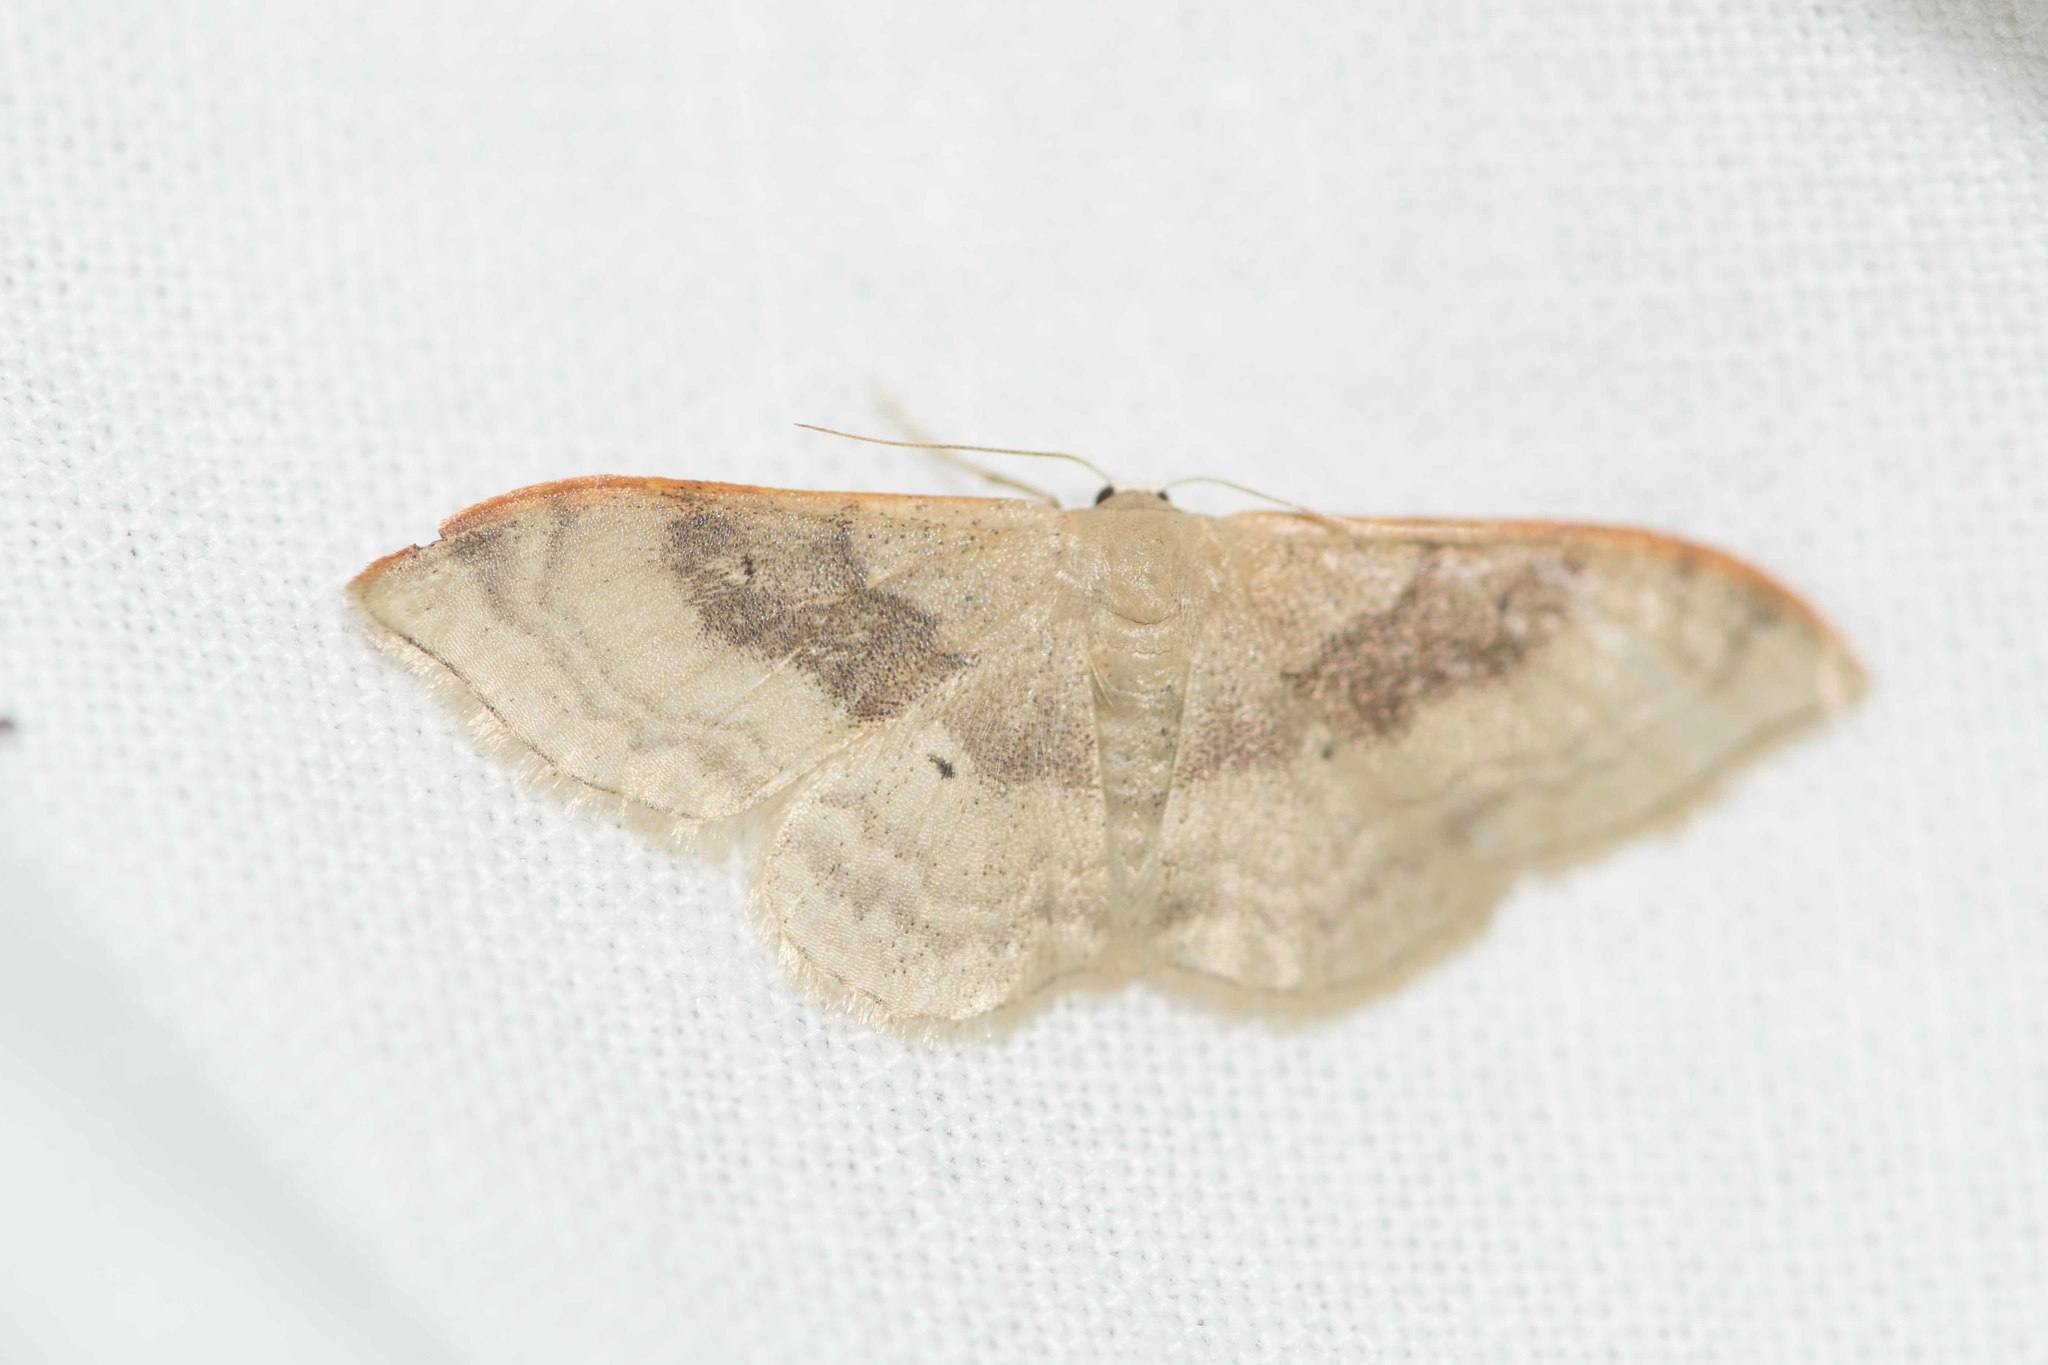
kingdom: Animalia
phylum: Arthropoda
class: Insecta
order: Lepidoptera
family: Geometridae
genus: Idaea
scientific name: Idaea degeneraria
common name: Portland ribbon wave
